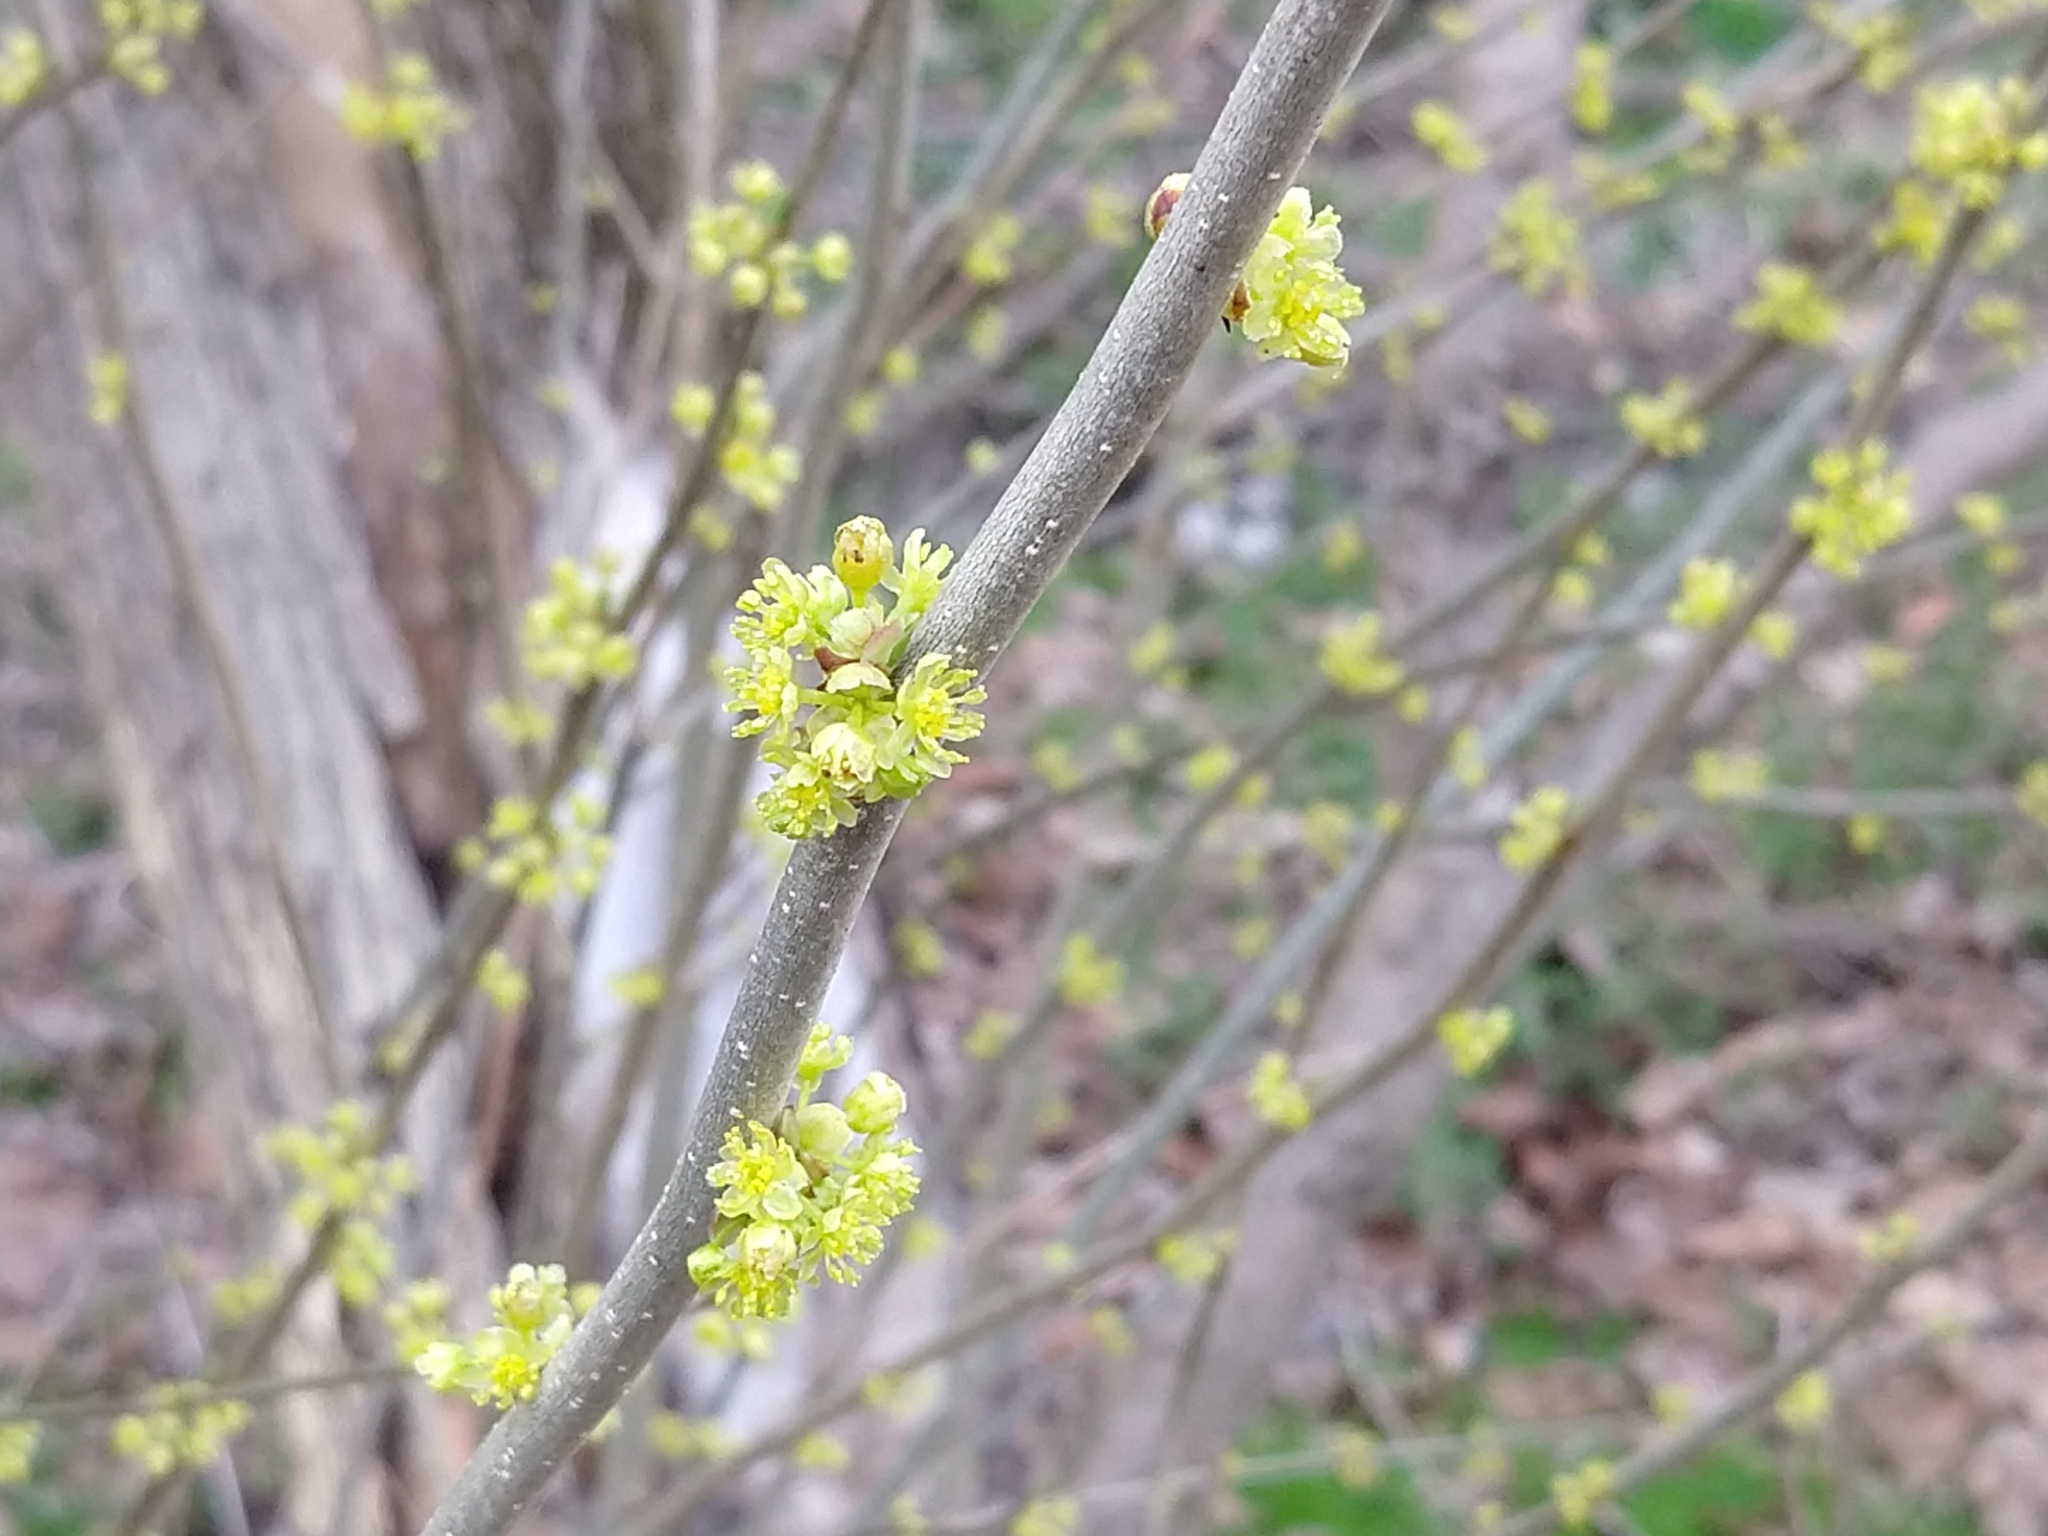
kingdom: Plantae
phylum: Tracheophyta
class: Magnoliopsida
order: Laurales
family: Lauraceae
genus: Lindera
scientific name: Lindera benzoin
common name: Spicebush
